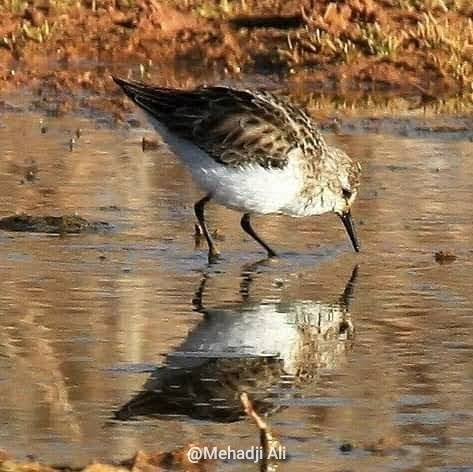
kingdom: Animalia
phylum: Chordata
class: Aves
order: Charadriiformes
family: Scolopacidae
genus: Calidris
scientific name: Calidris minuta
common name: Little stint
